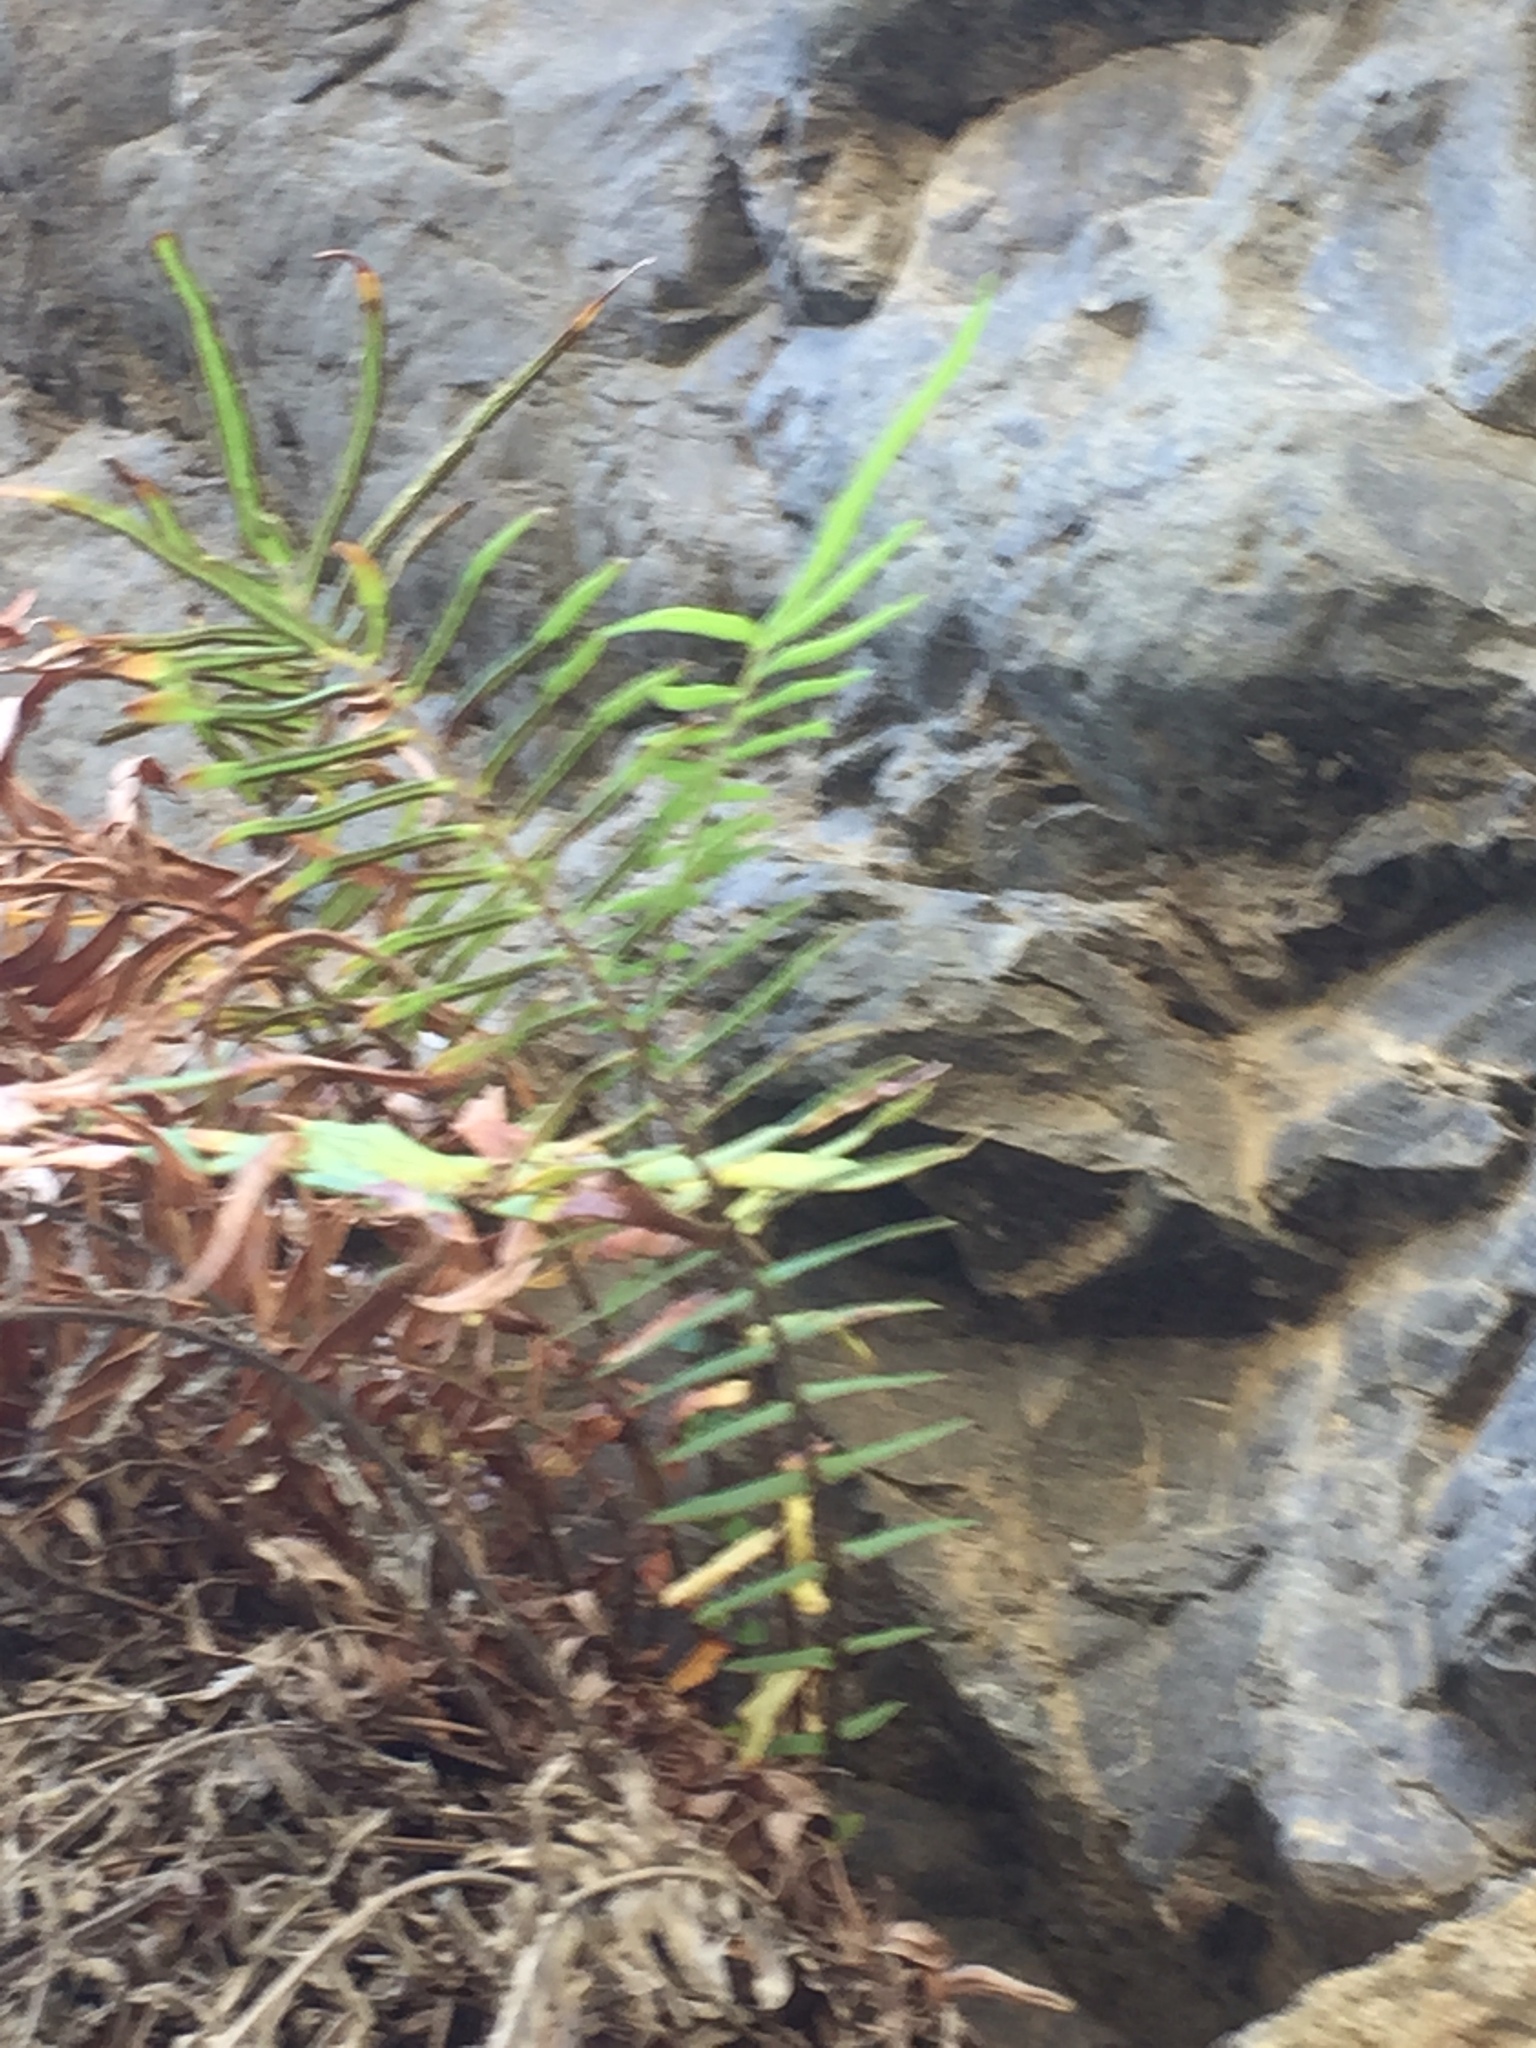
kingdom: Plantae
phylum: Tracheophyta
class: Polypodiopsida
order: Polypodiales
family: Pteridaceae
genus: Pteris
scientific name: Pteris vittata
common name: Ladder brake
